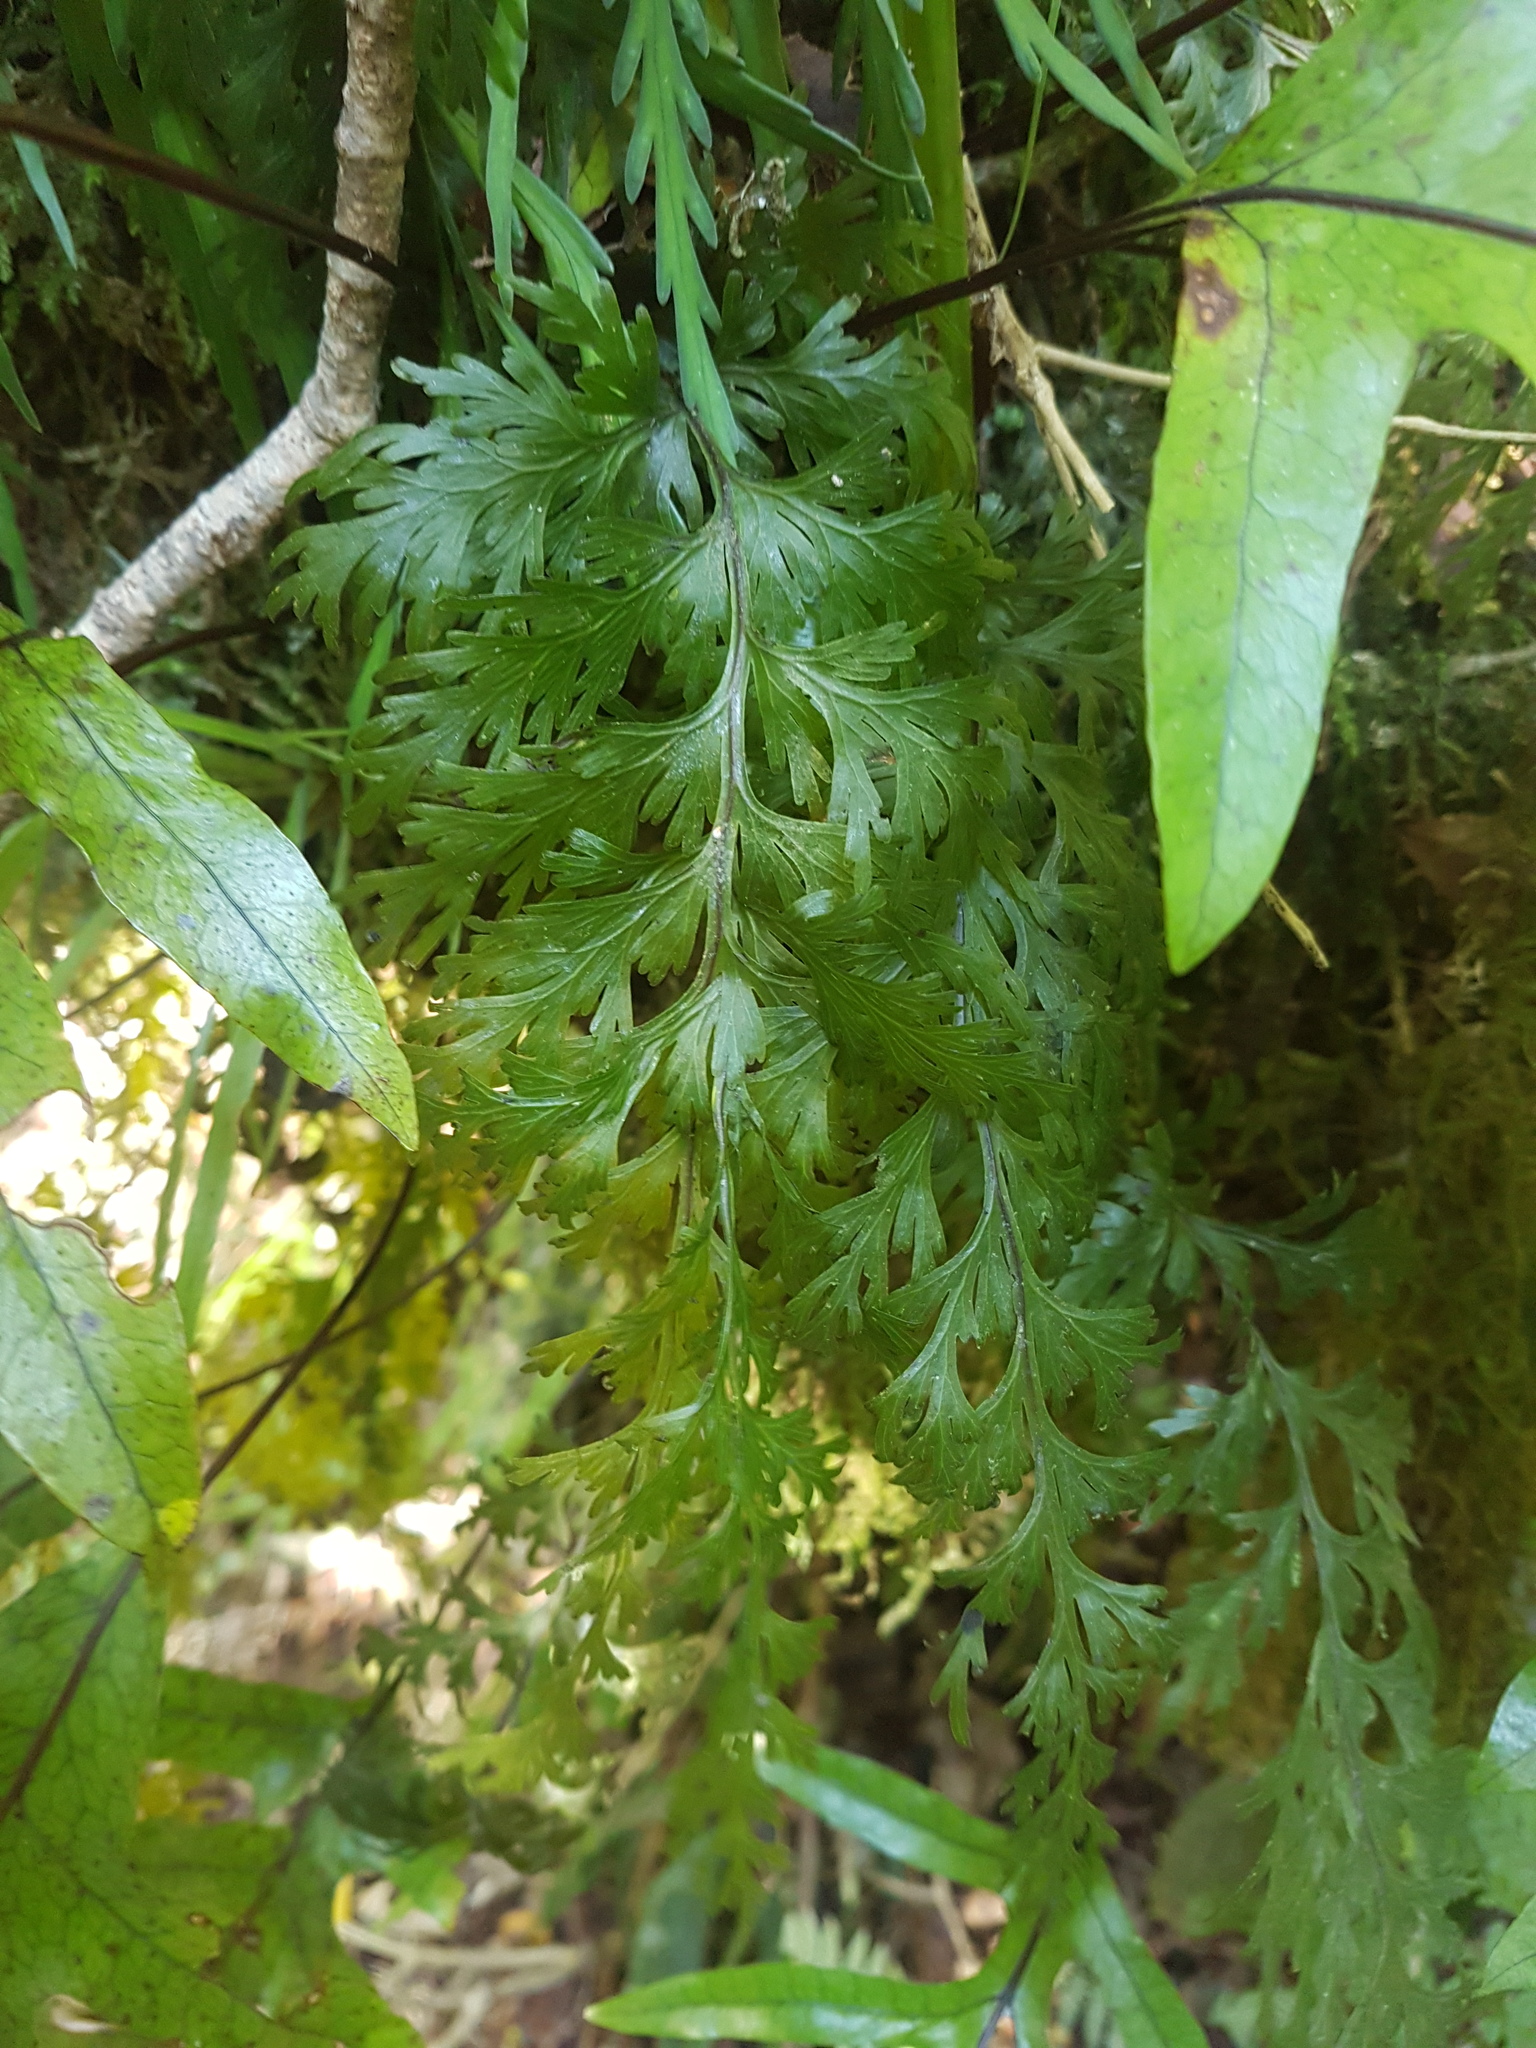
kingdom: Plantae
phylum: Tracheophyta
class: Polypodiopsida
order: Hymenophyllales
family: Hymenophyllaceae
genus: Hymenophyllum
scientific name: Hymenophyllum dilatatum
